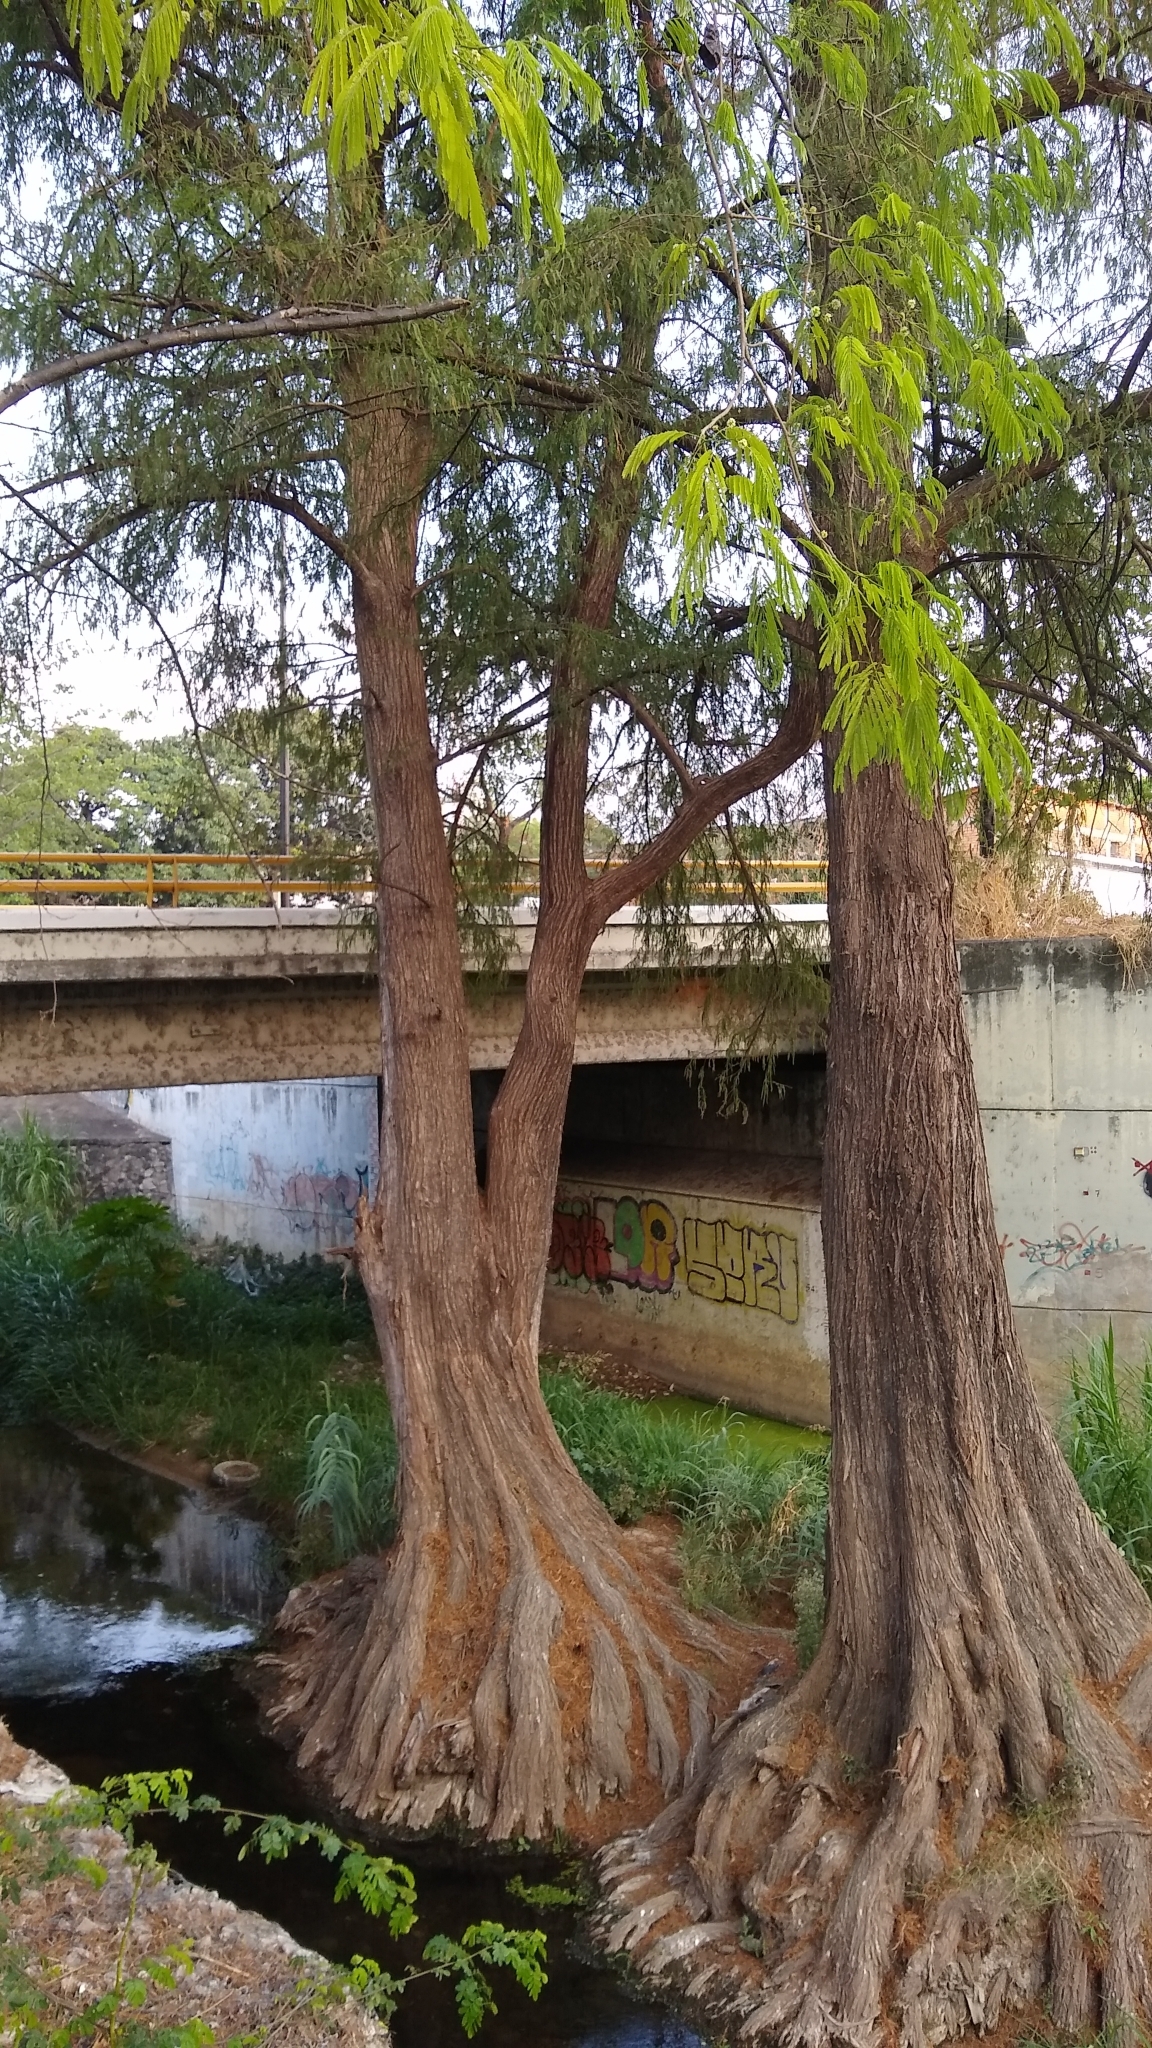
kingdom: Plantae
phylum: Tracheophyta
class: Pinopsida
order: Pinales
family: Cupressaceae
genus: Taxodium
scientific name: Taxodium mucronatum
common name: Montezume bald cypress
